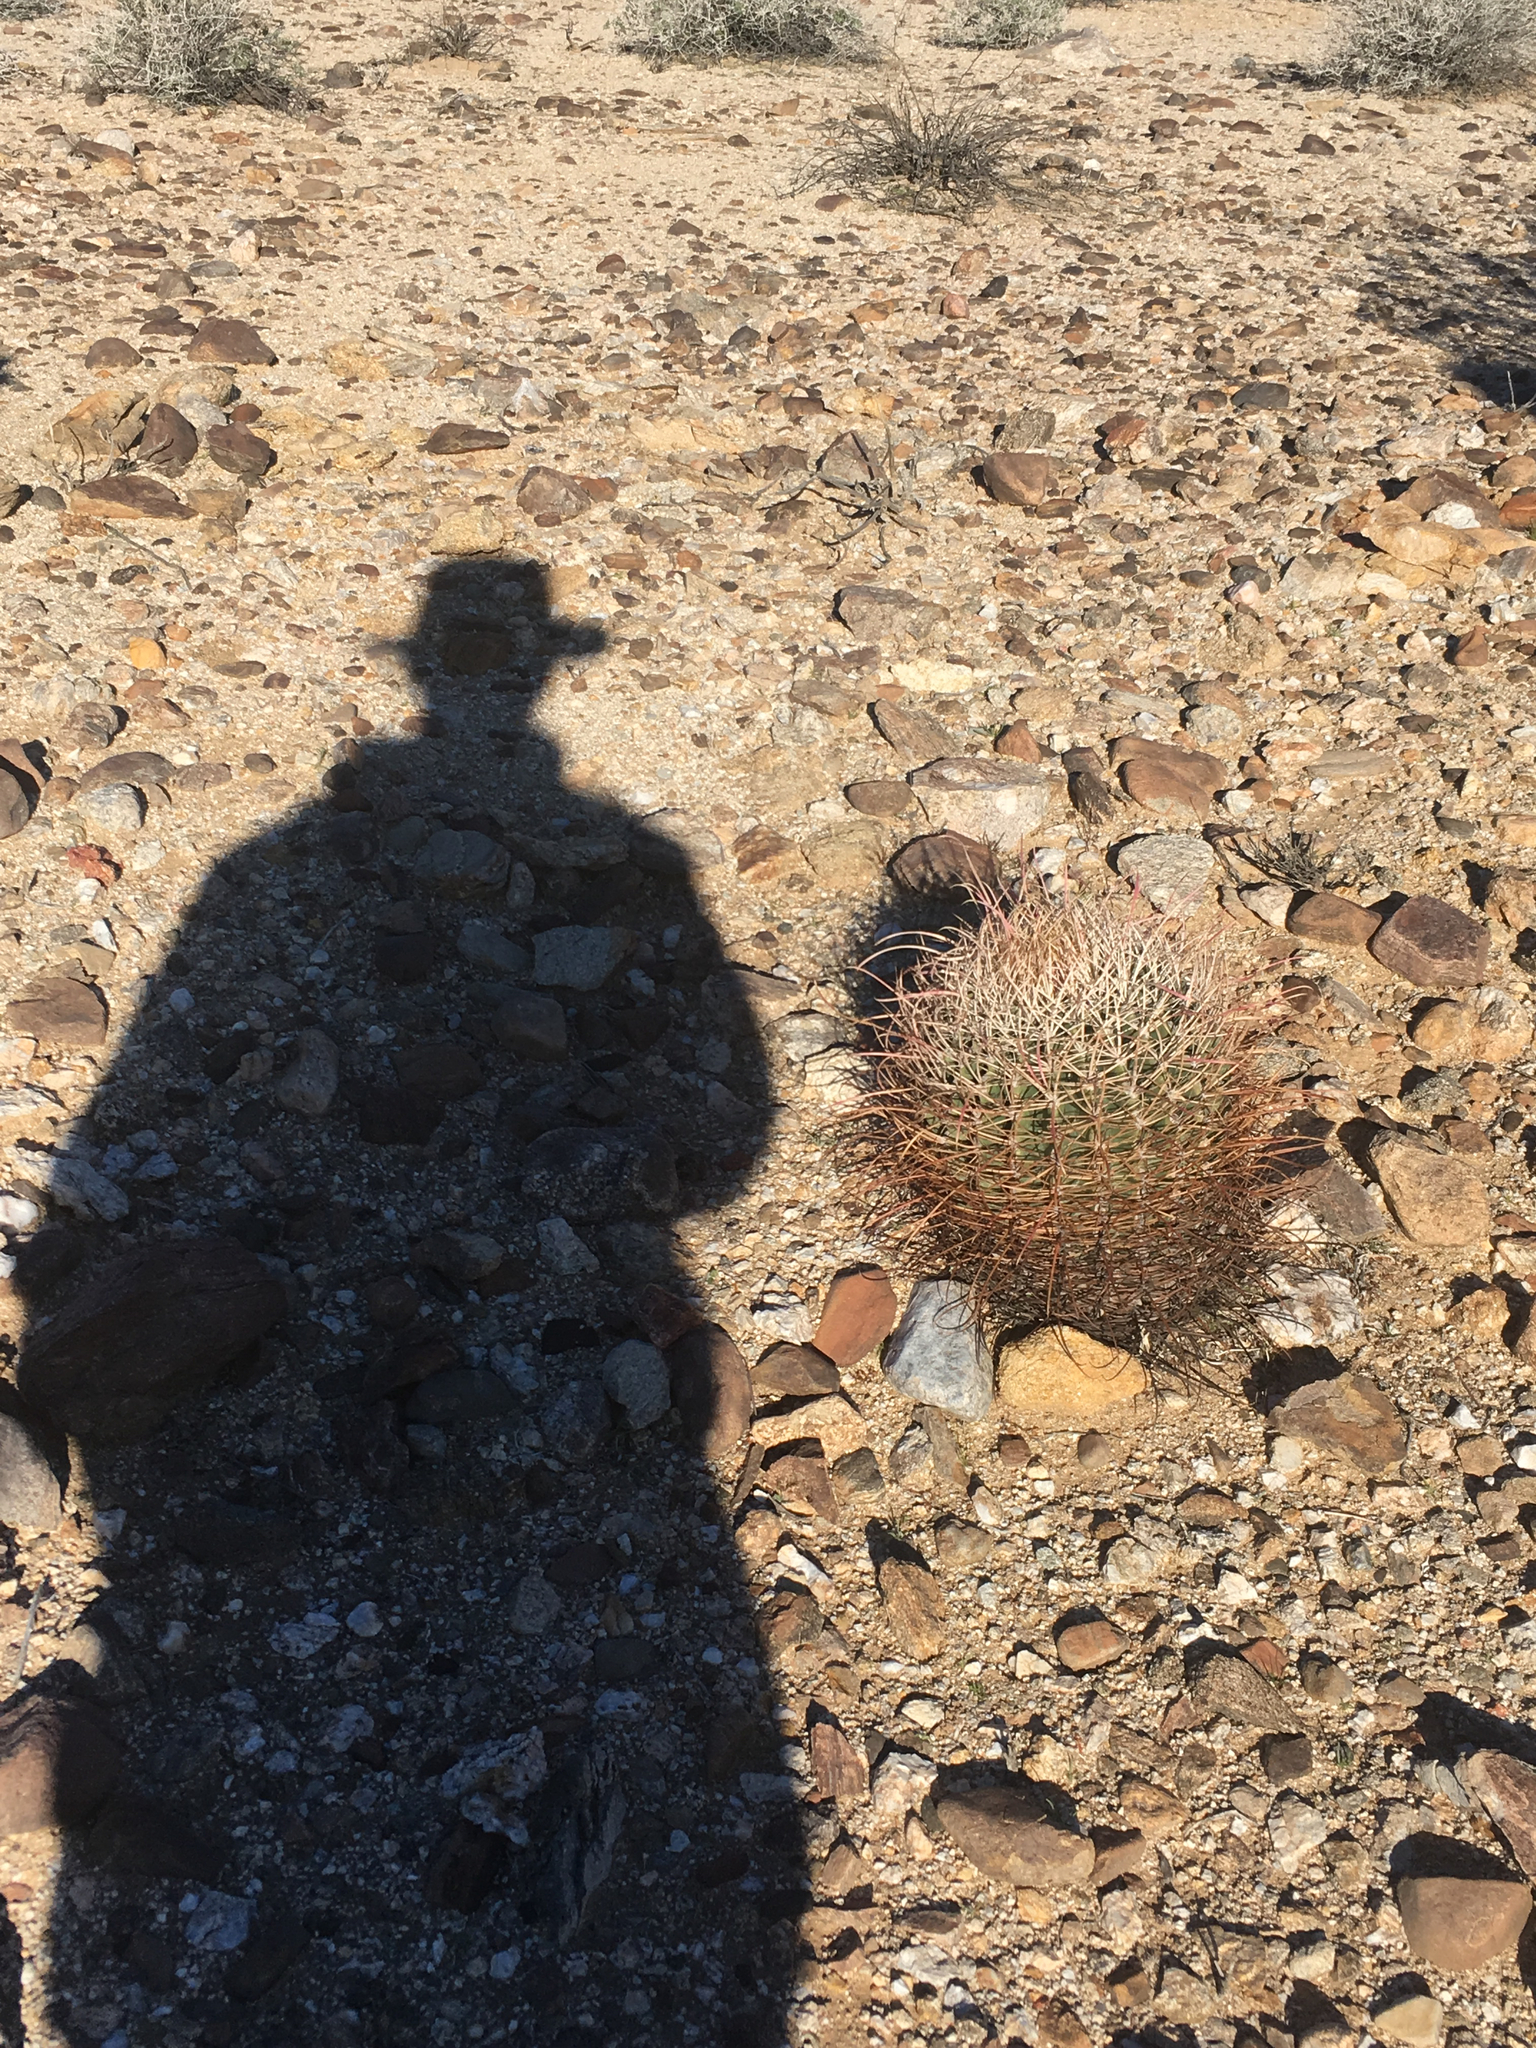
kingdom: Plantae
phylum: Tracheophyta
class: Magnoliopsida
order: Caryophyllales
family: Cactaceae
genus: Ferocactus
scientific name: Ferocactus cylindraceus
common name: California barrel cactus
